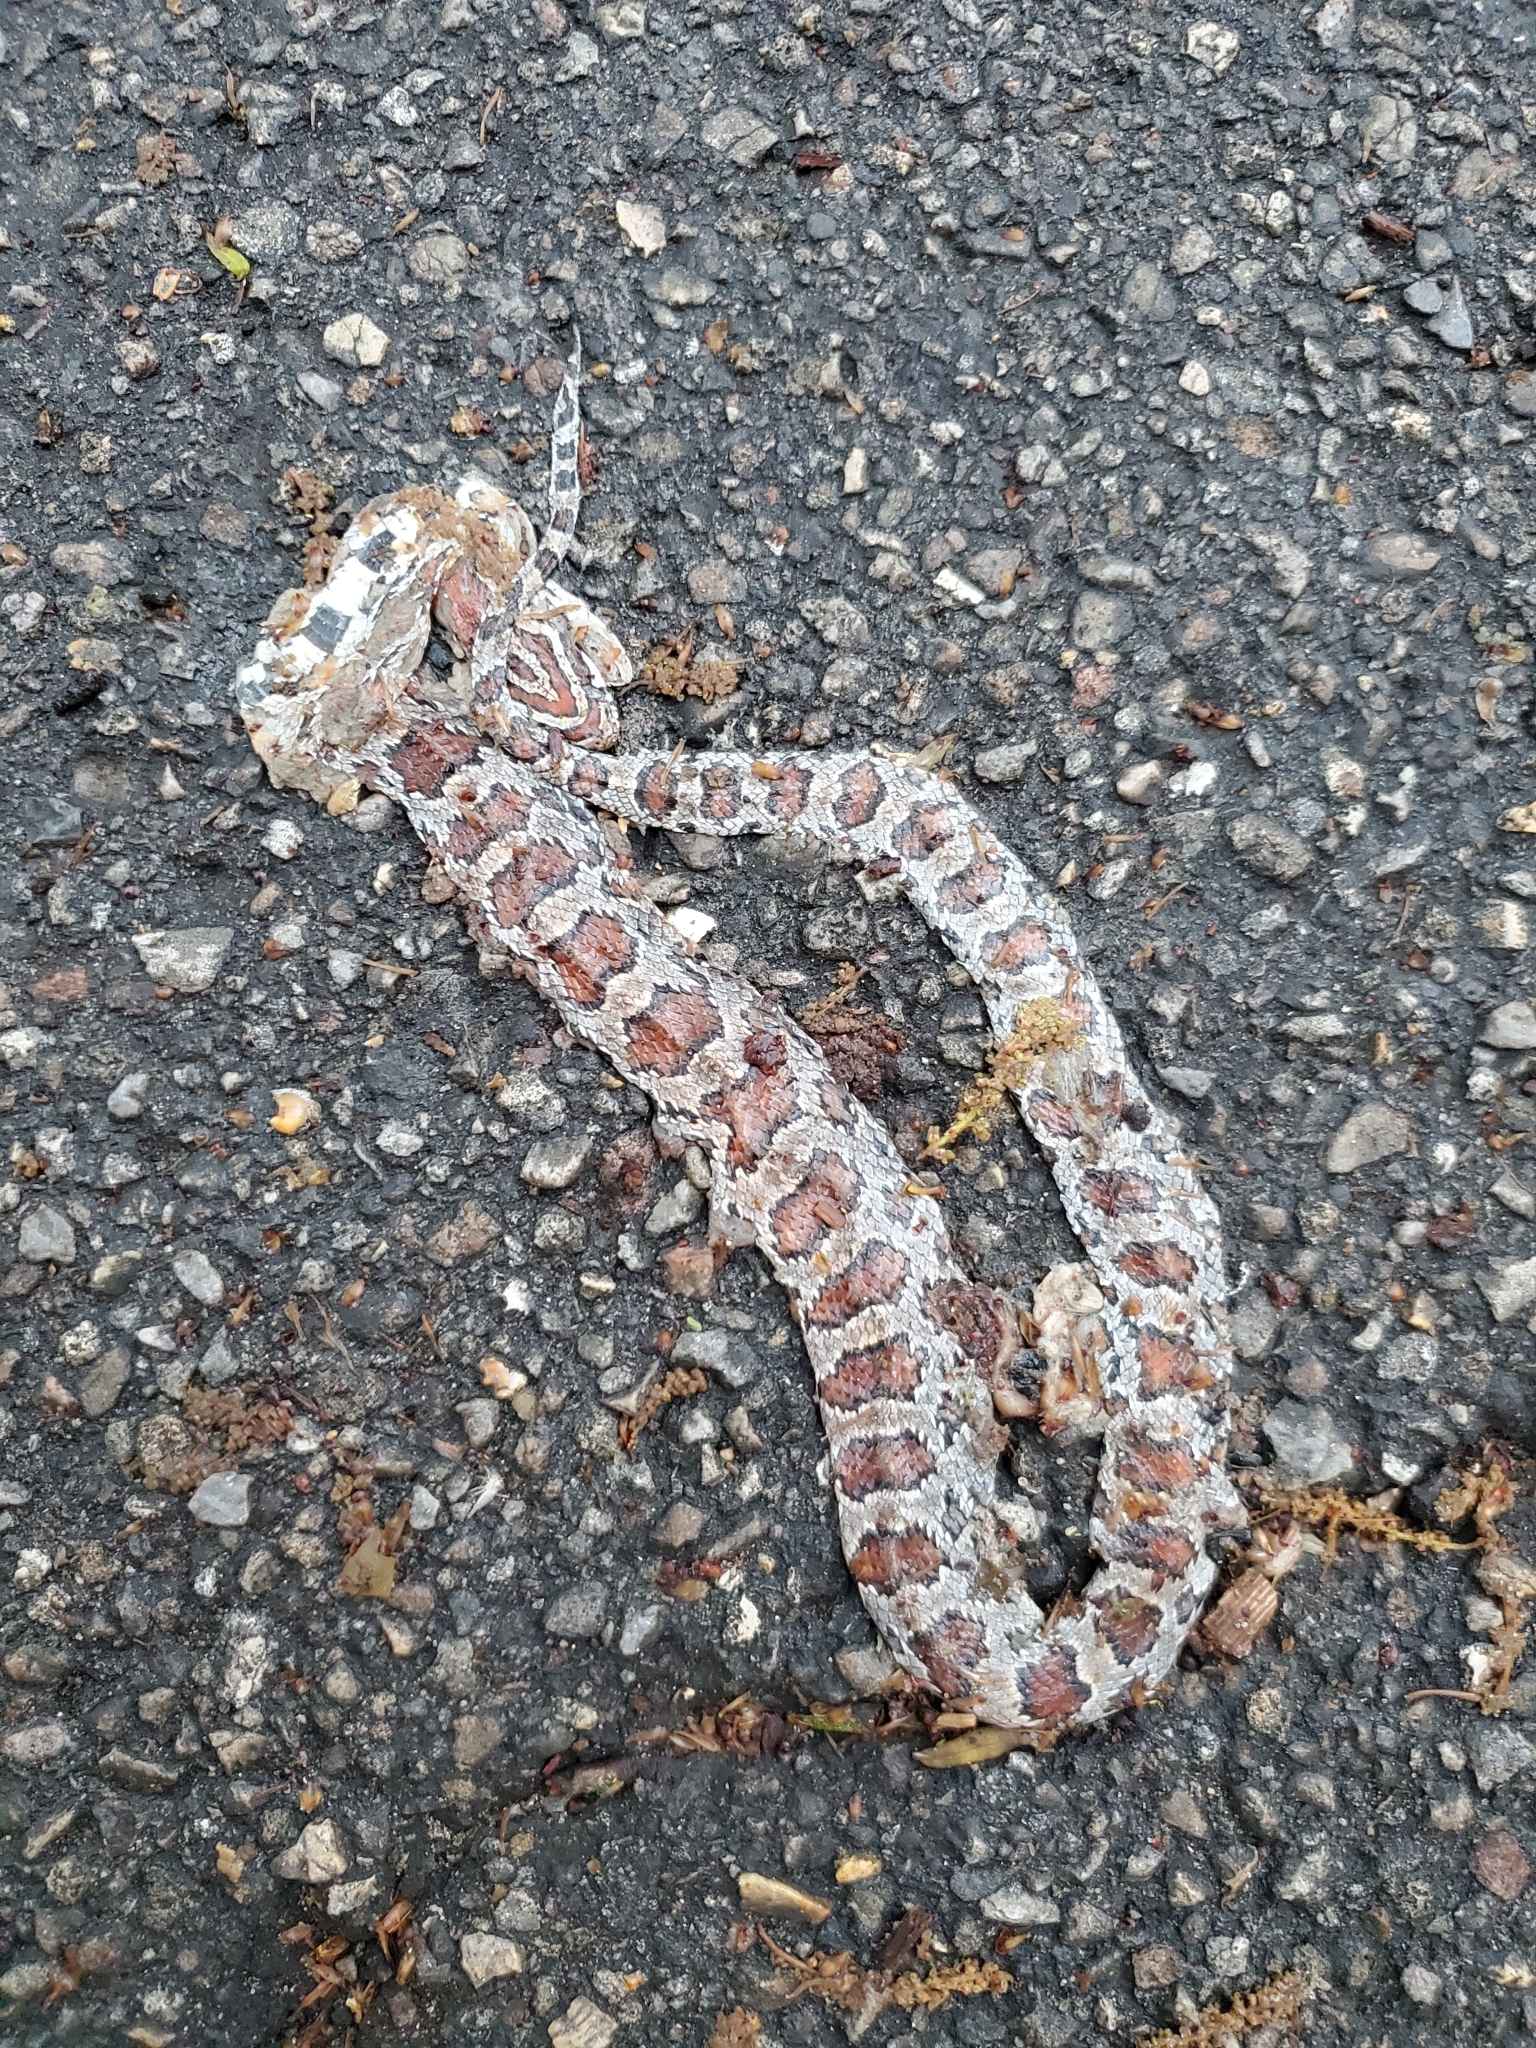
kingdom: Animalia
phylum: Chordata
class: Squamata
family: Colubridae
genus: Pantherophis
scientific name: Pantherophis guttatus
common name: Red cornsnake
